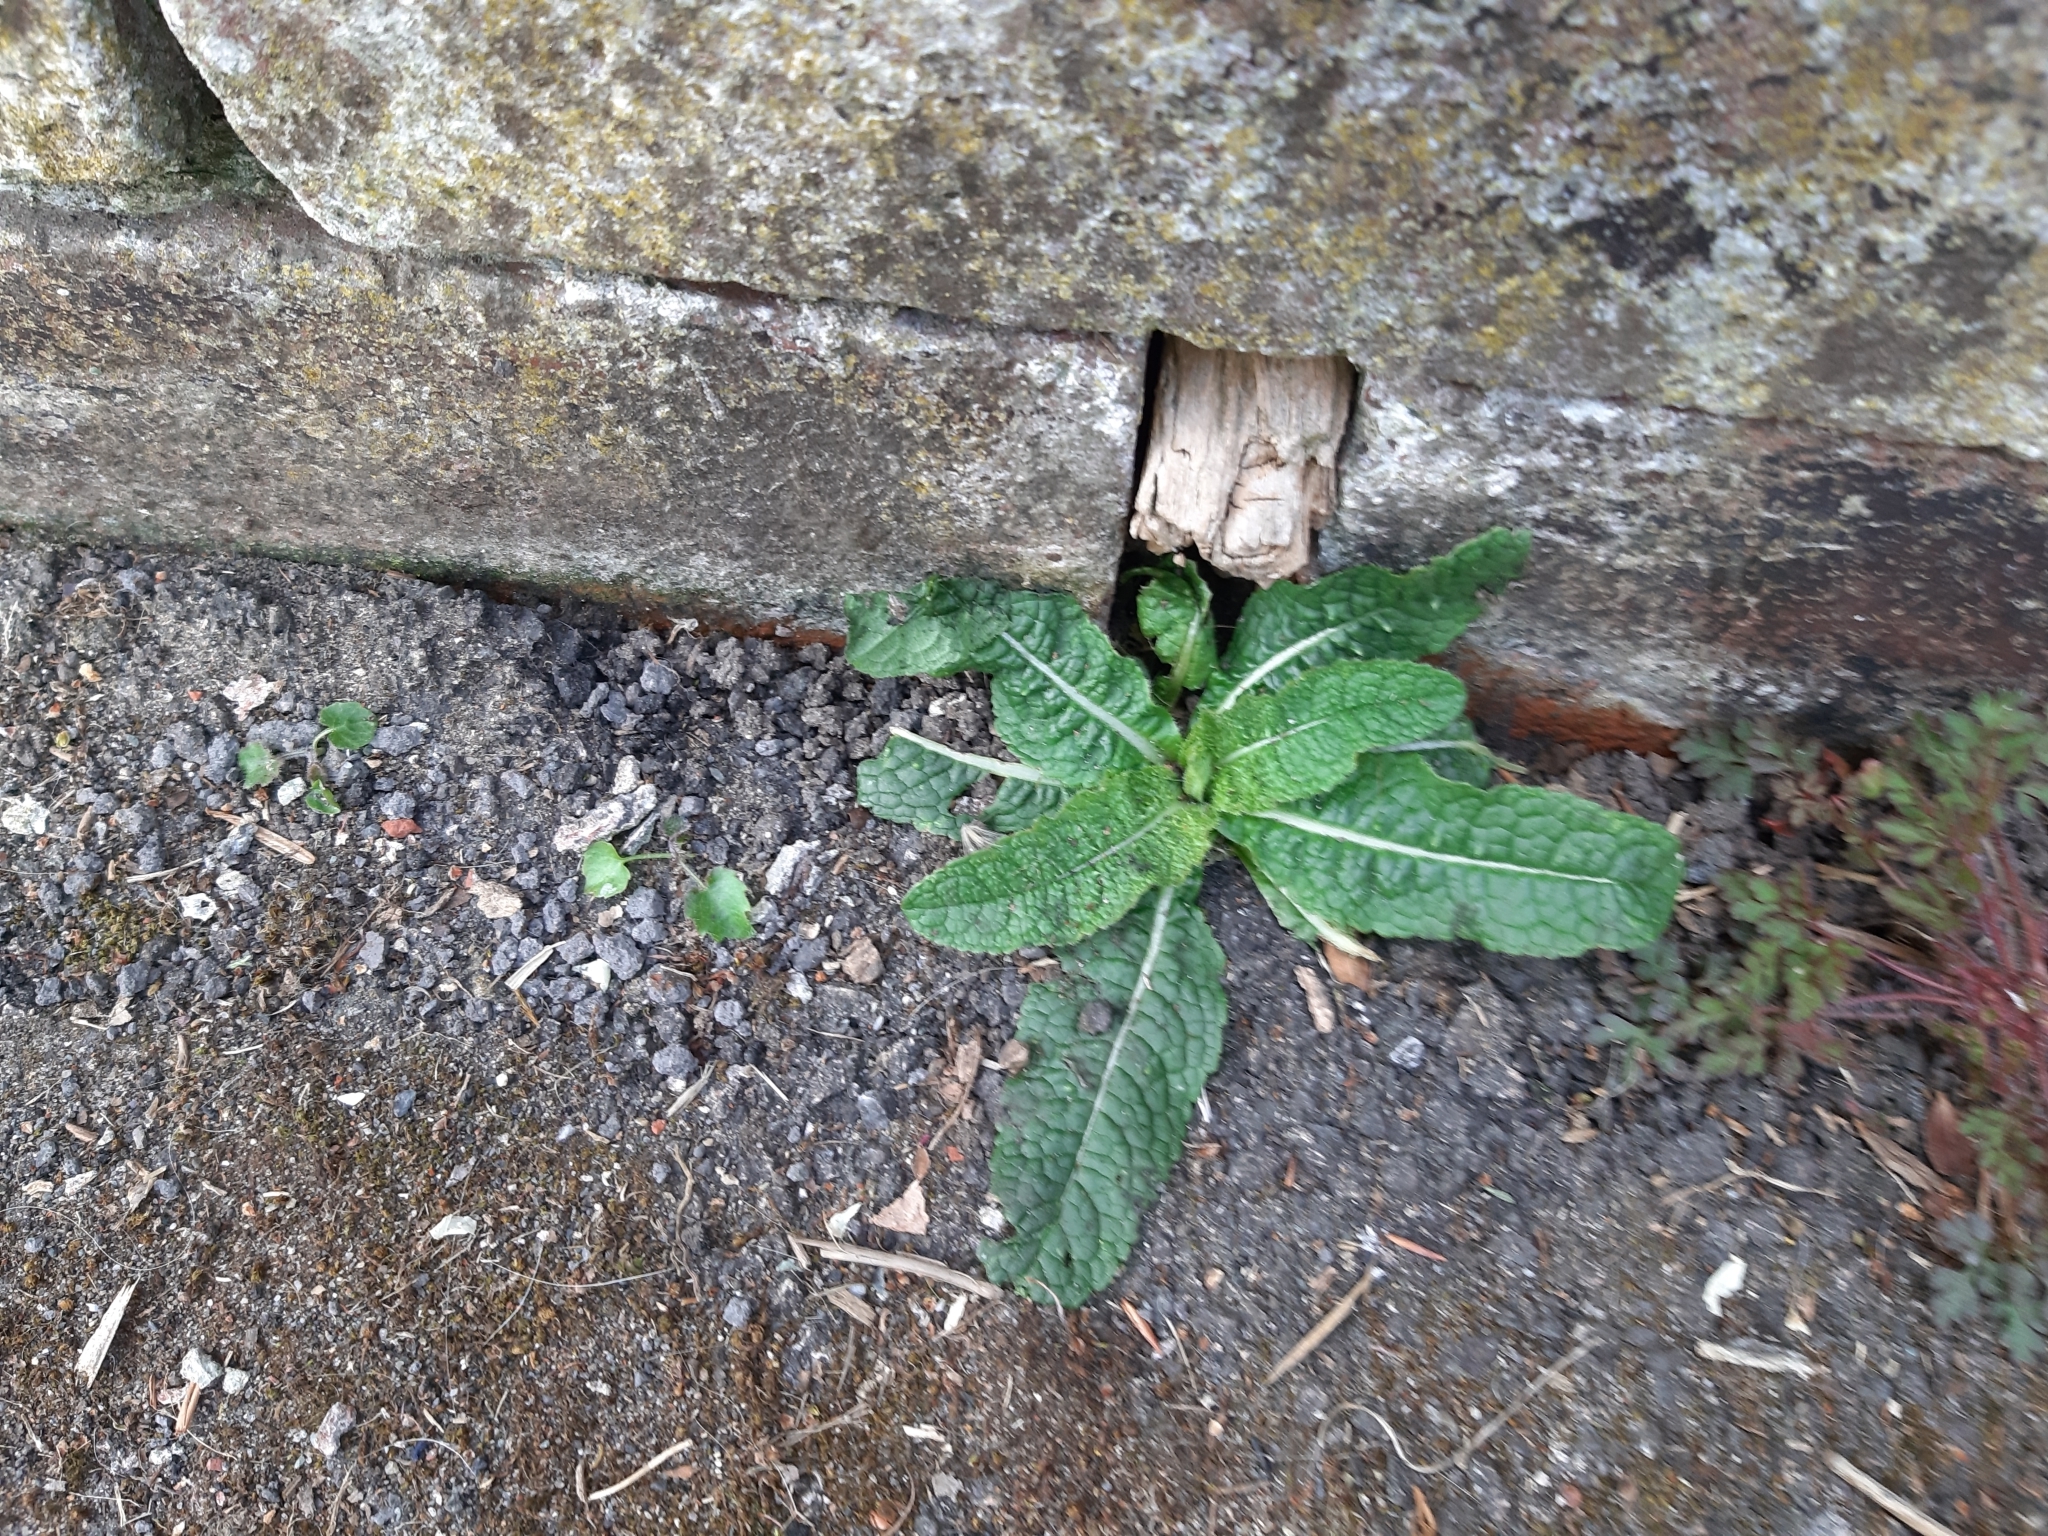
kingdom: Plantae
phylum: Tracheophyta
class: Magnoliopsida
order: Dipsacales
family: Caprifoliaceae
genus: Dipsacus
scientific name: Dipsacus fullonum
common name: Teasel
